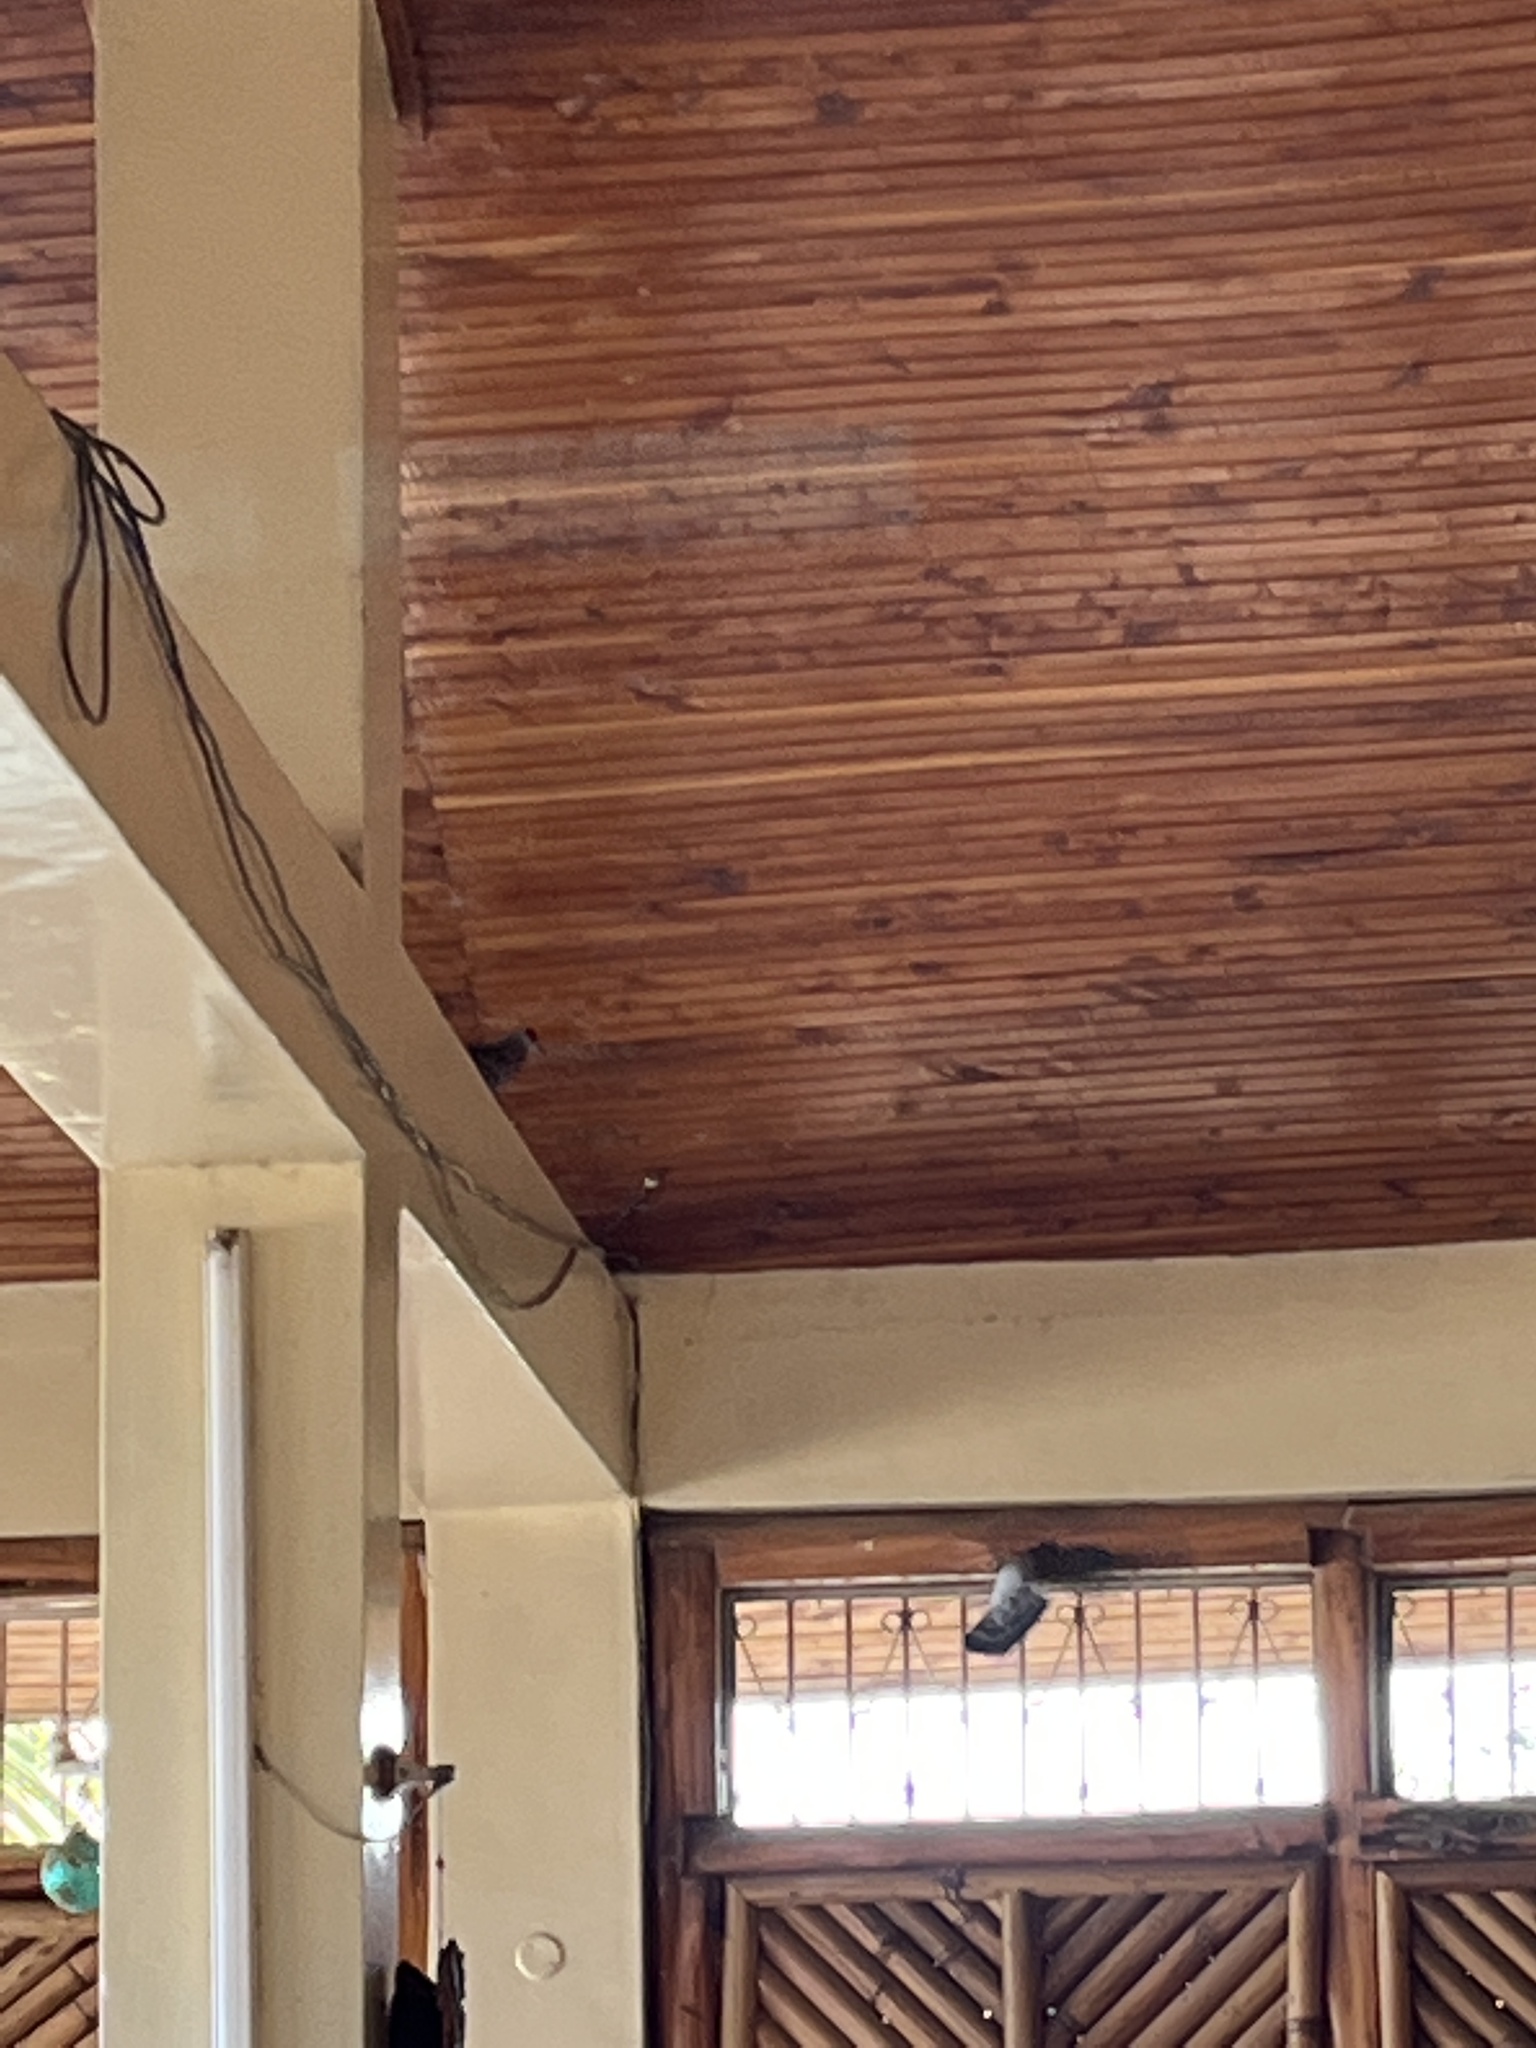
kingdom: Animalia
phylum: Chordata
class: Aves
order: Columbiformes
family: Columbidae
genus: Columba
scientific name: Columba guinea
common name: Speckled pigeon
